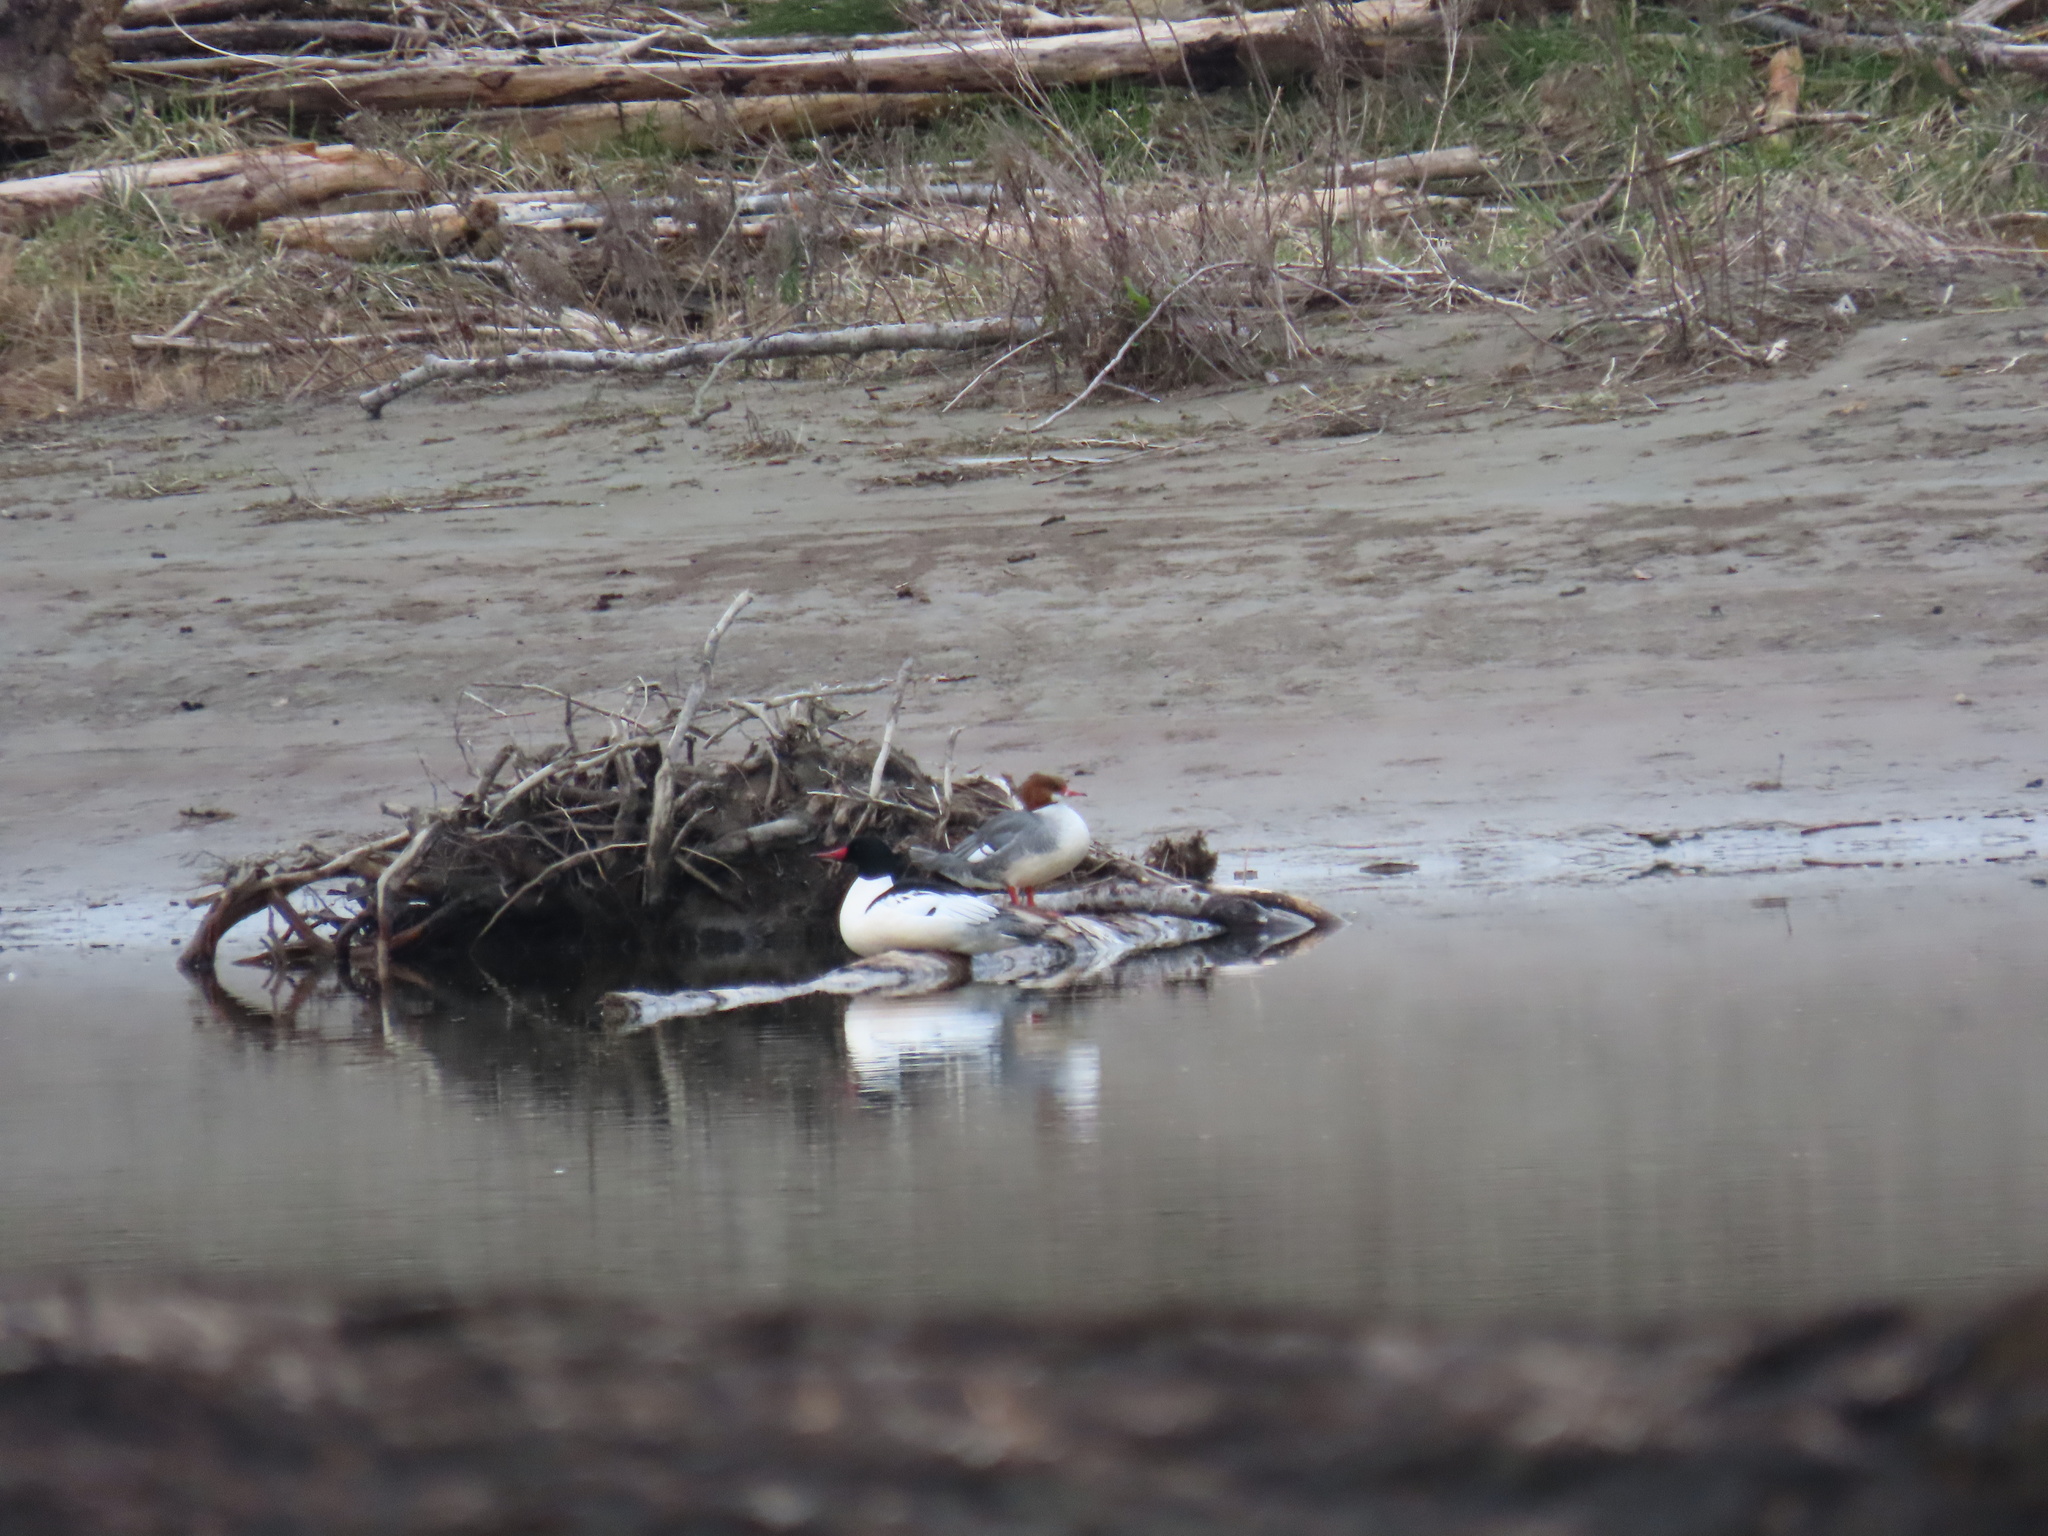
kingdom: Animalia
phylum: Chordata
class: Aves
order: Anseriformes
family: Anatidae
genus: Mergus
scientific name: Mergus merganser
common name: Common merganser
